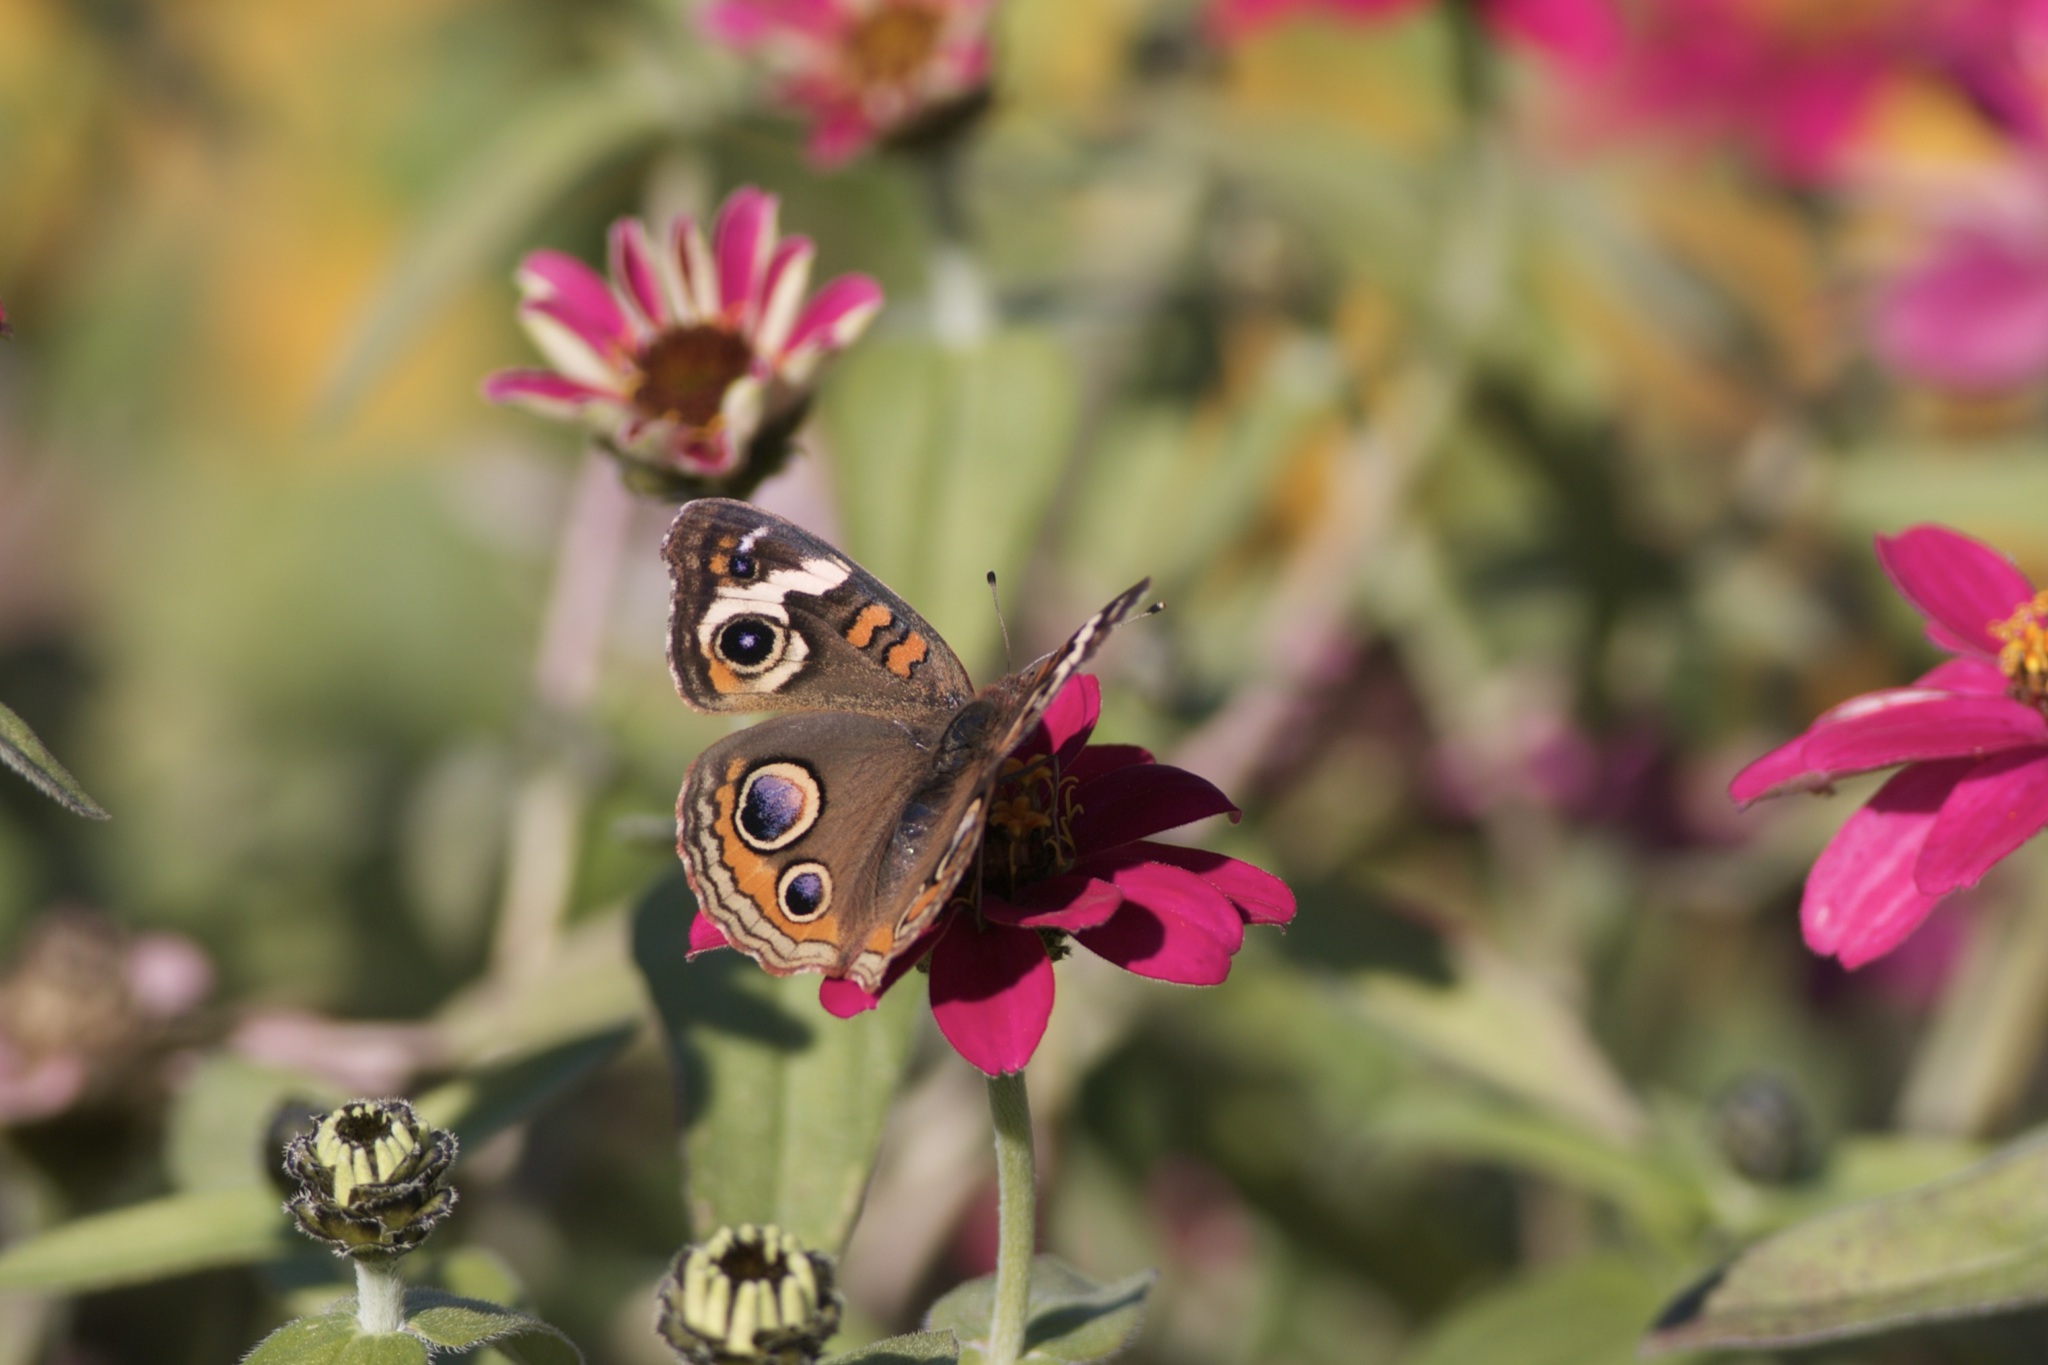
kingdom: Animalia
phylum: Arthropoda
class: Insecta
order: Lepidoptera
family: Nymphalidae
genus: Junonia
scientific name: Junonia coenia
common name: Common buckeye
